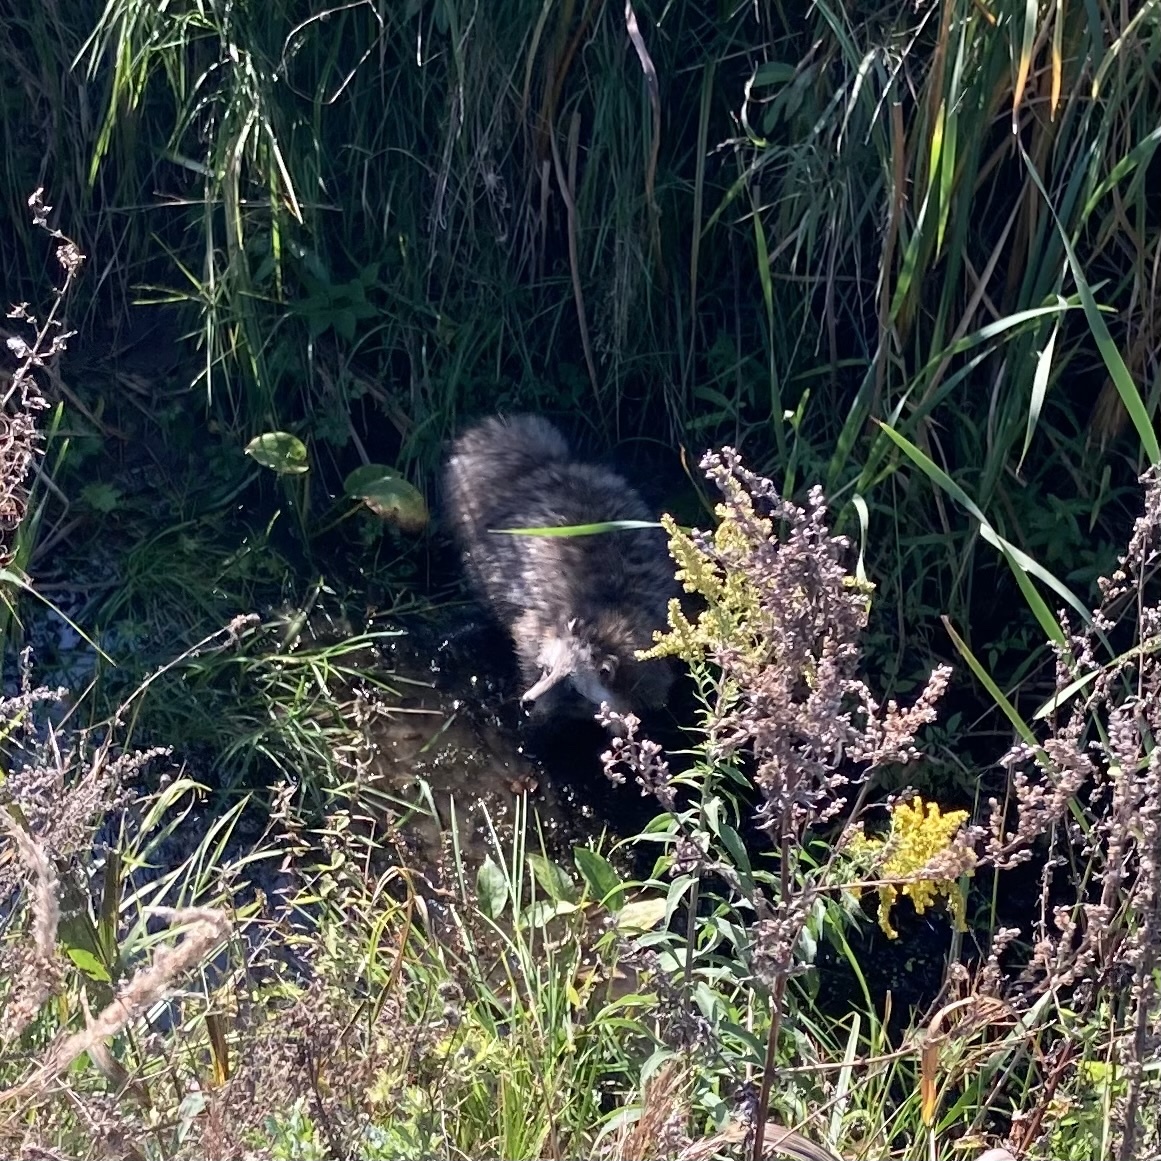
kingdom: Animalia
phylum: Chordata
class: Mammalia
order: Carnivora
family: Canidae
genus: Nyctereutes
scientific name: Nyctereutes procyonoides
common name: Raccoon dog
